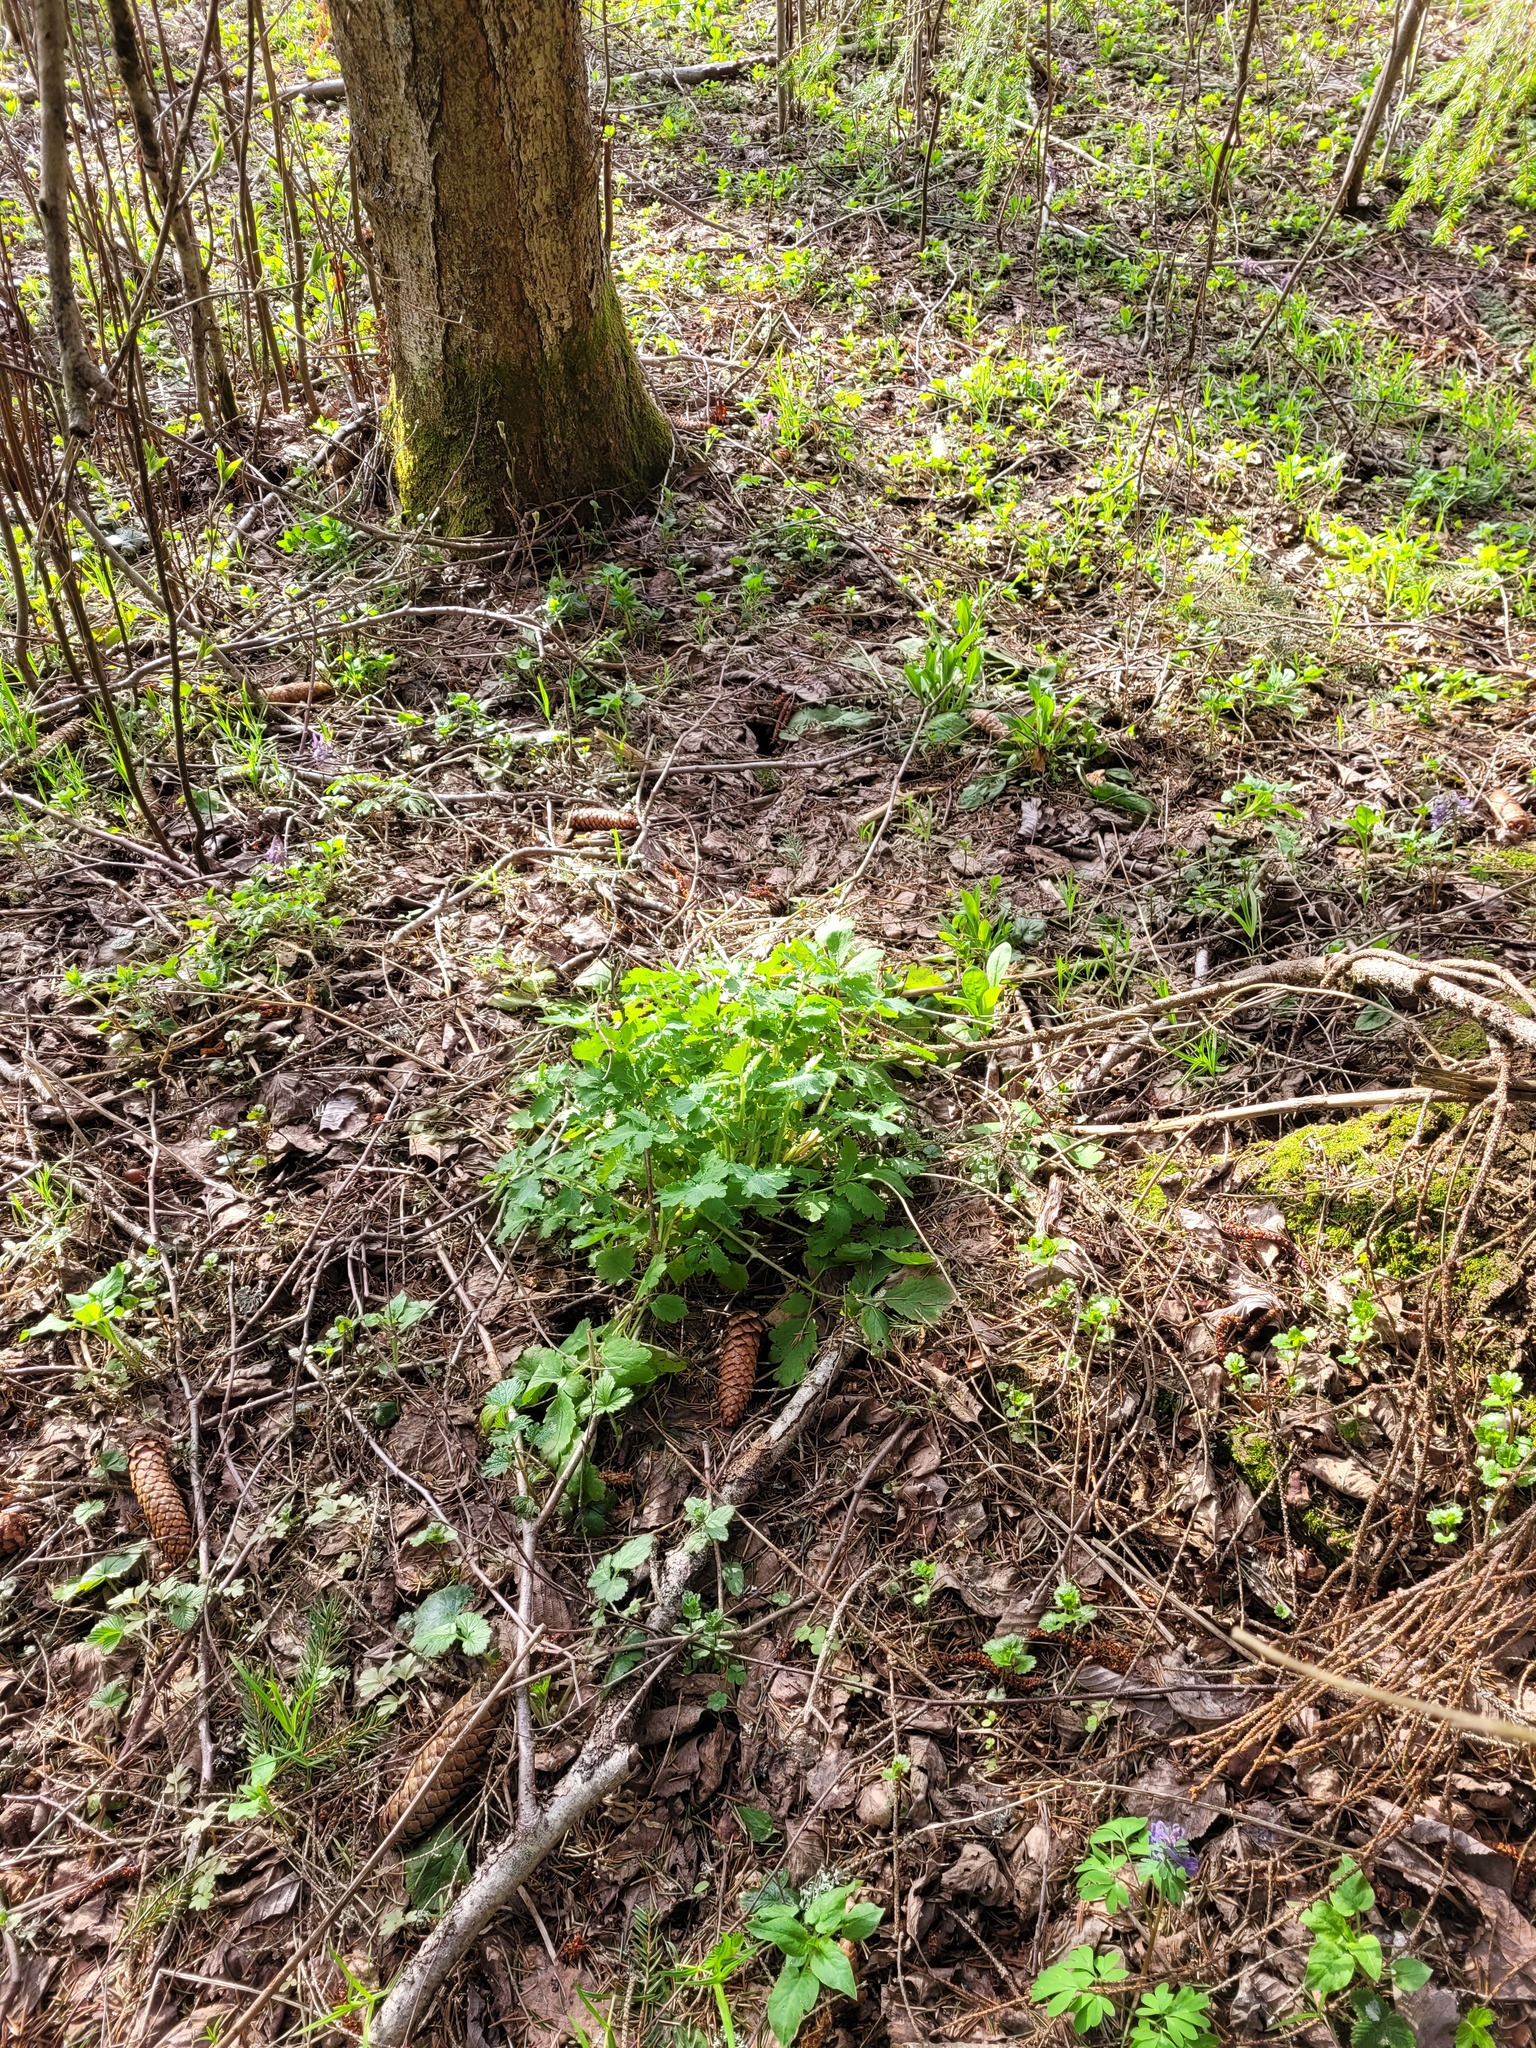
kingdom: Plantae
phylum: Tracheophyta
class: Magnoliopsida
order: Ranunculales
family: Papaveraceae
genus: Chelidonium
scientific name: Chelidonium majus
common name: Greater celandine
